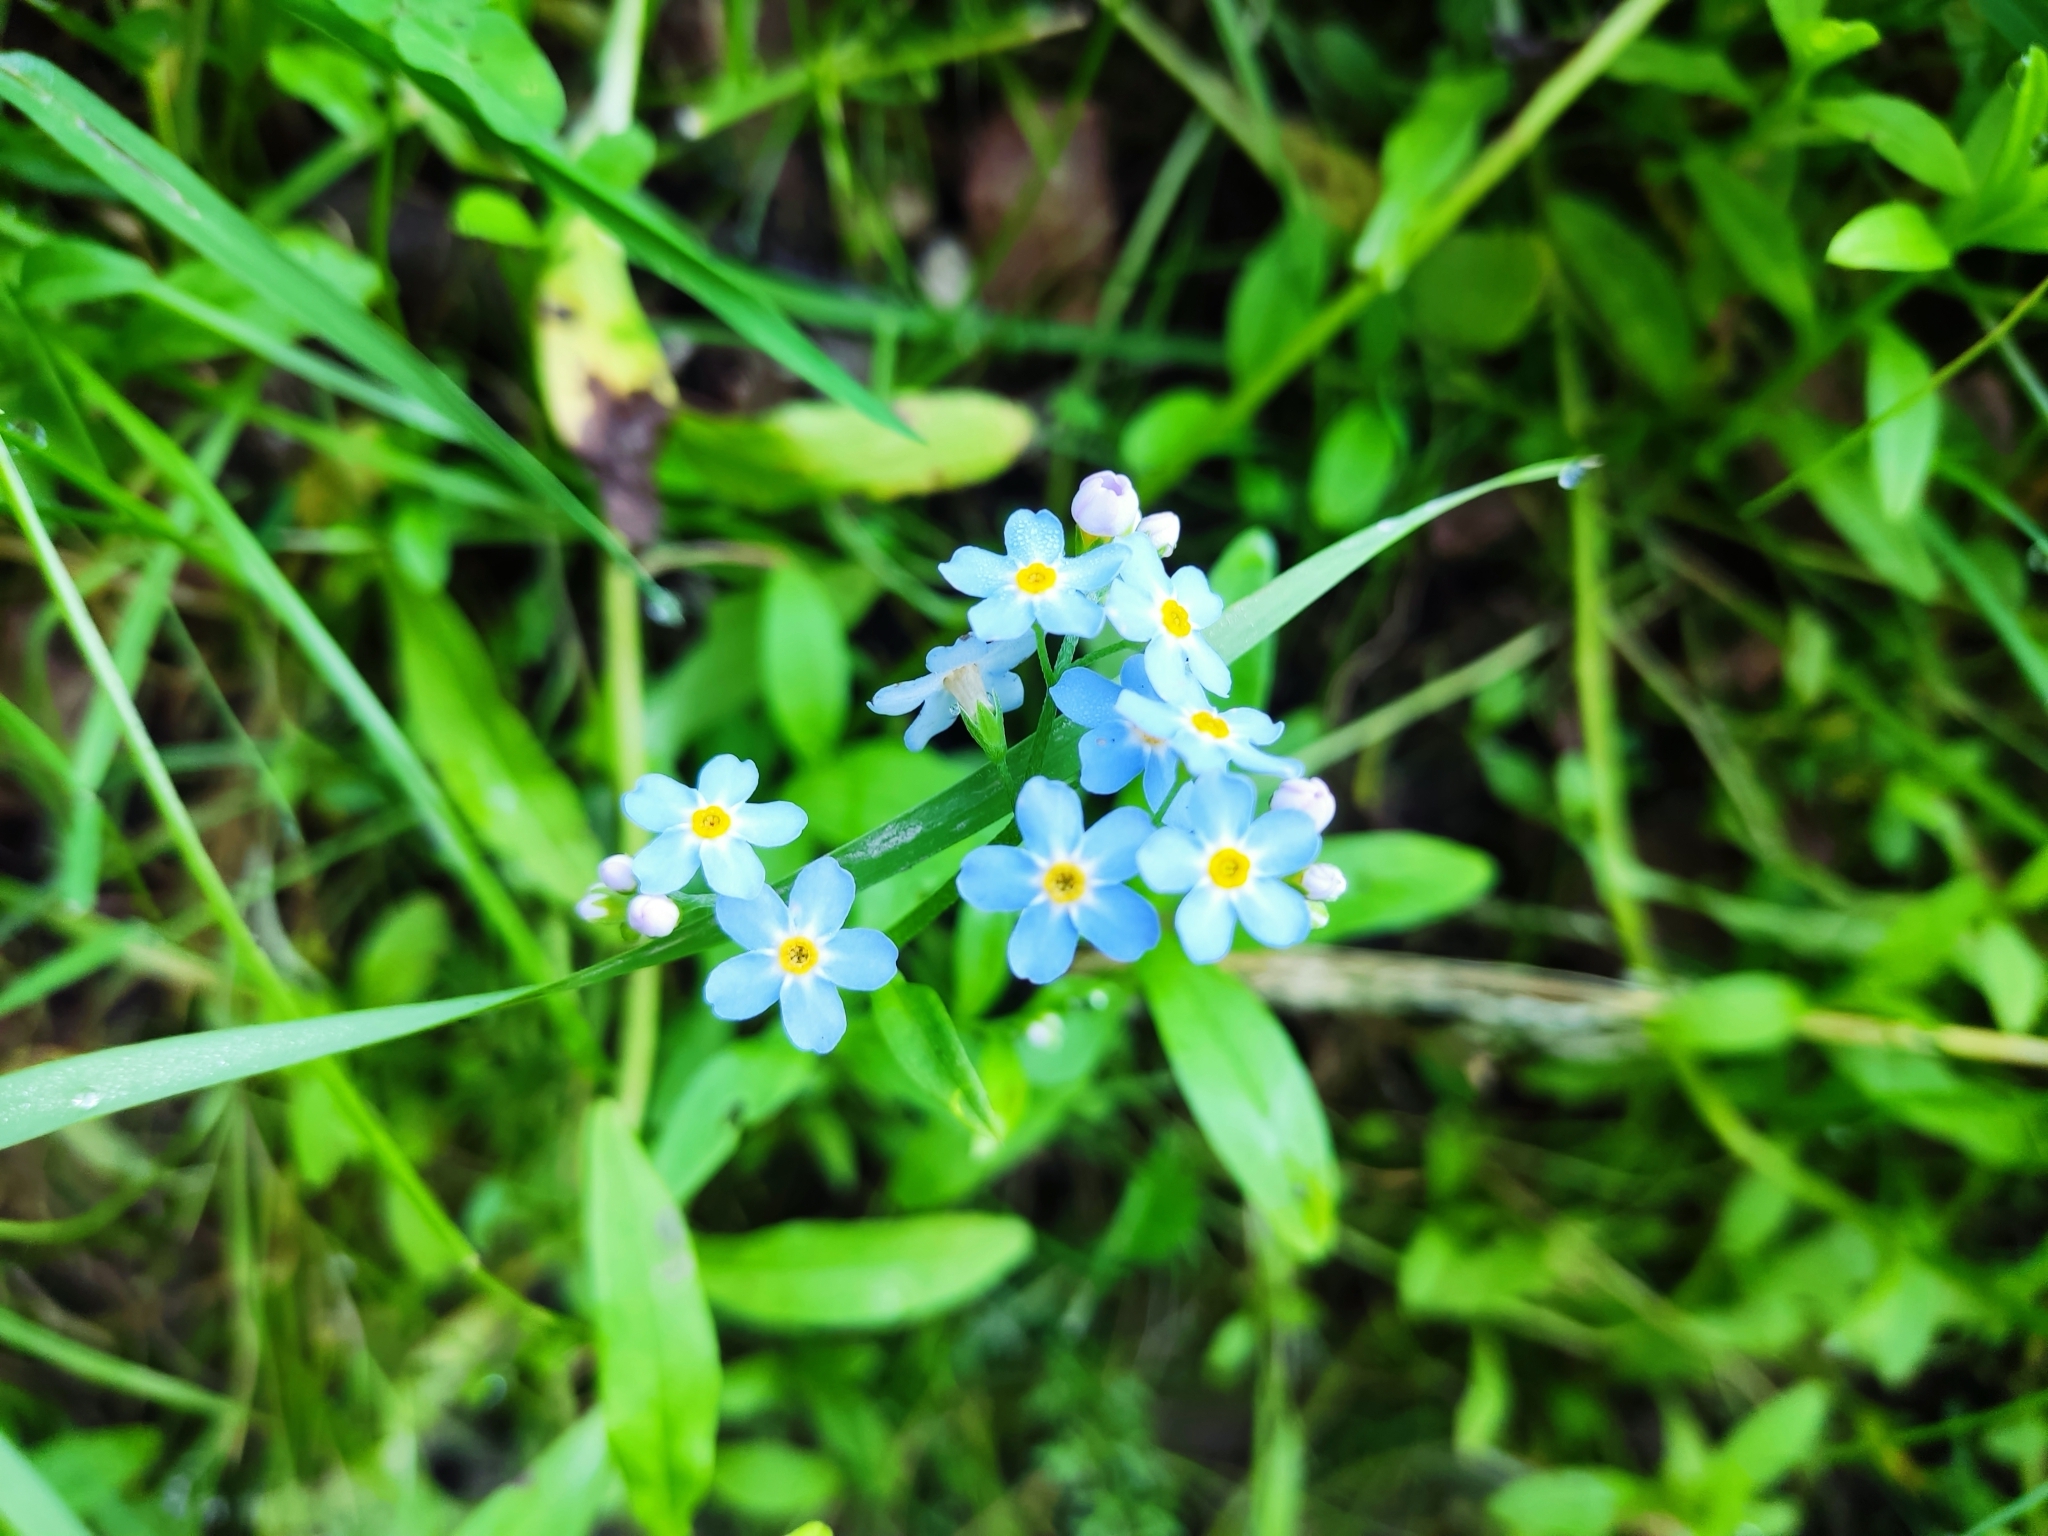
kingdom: Plantae
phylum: Tracheophyta
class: Magnoliopsida
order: Boraginales
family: Boraginaceae
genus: Myosotis
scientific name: Myosotis scorpioides
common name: Water forget-me-not
